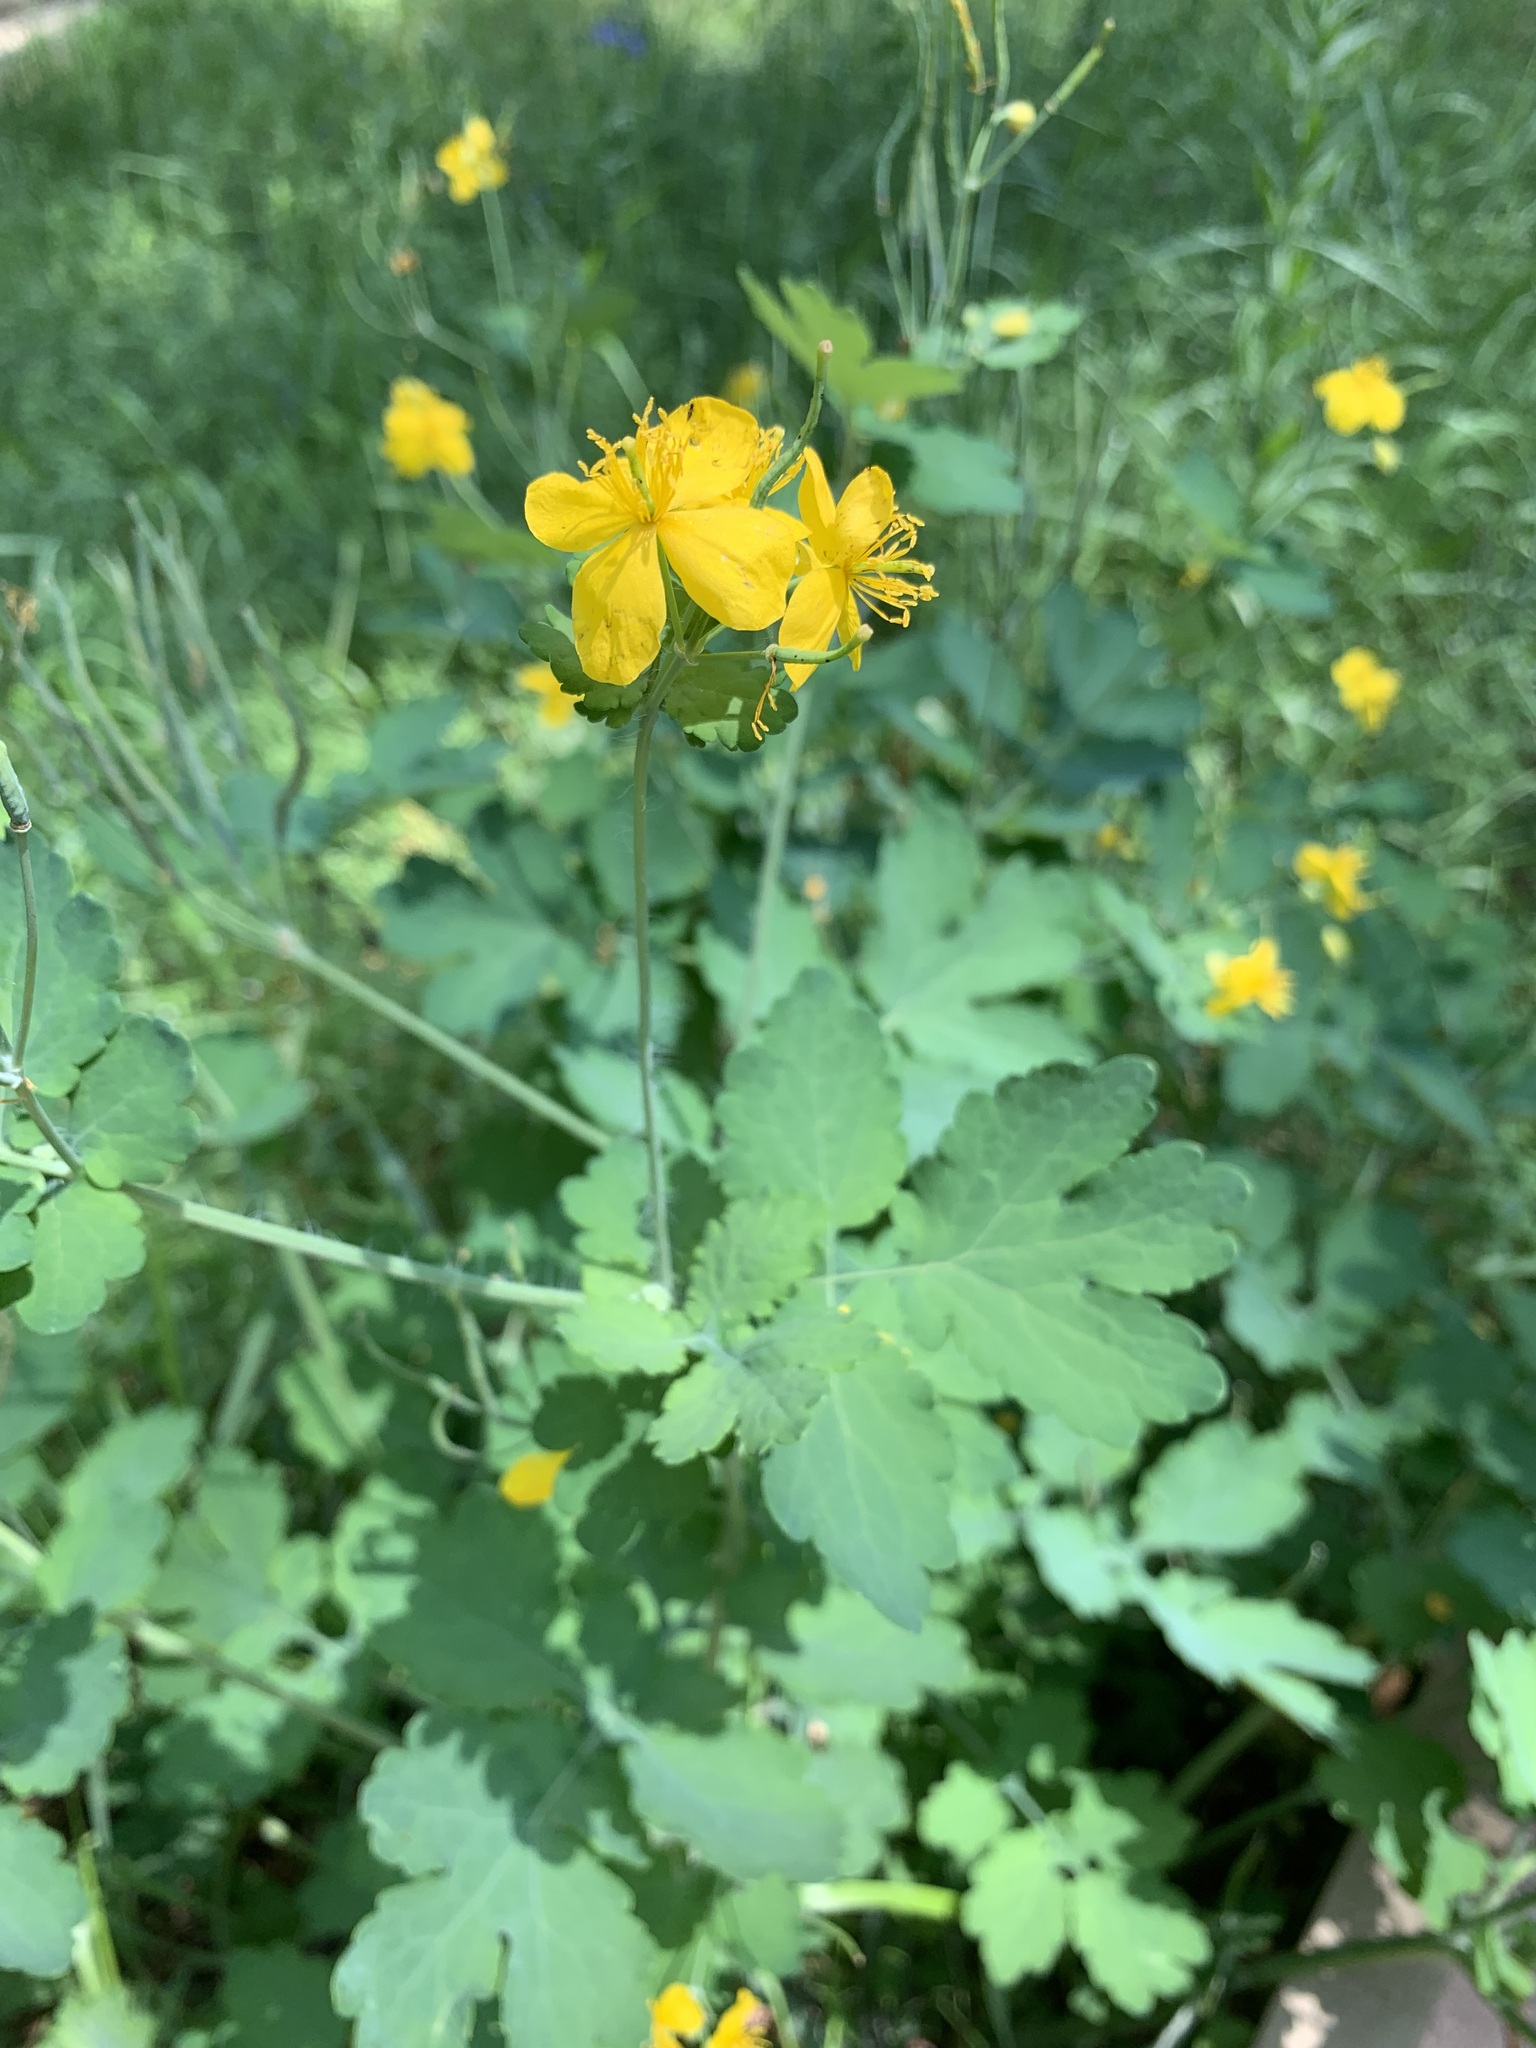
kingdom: Plantae
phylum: Tracheophyta
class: Magnoliopsida
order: Ranunculales
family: Papaveraceae
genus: Chelidonium
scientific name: Chelidonium majus
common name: Greater celandine
